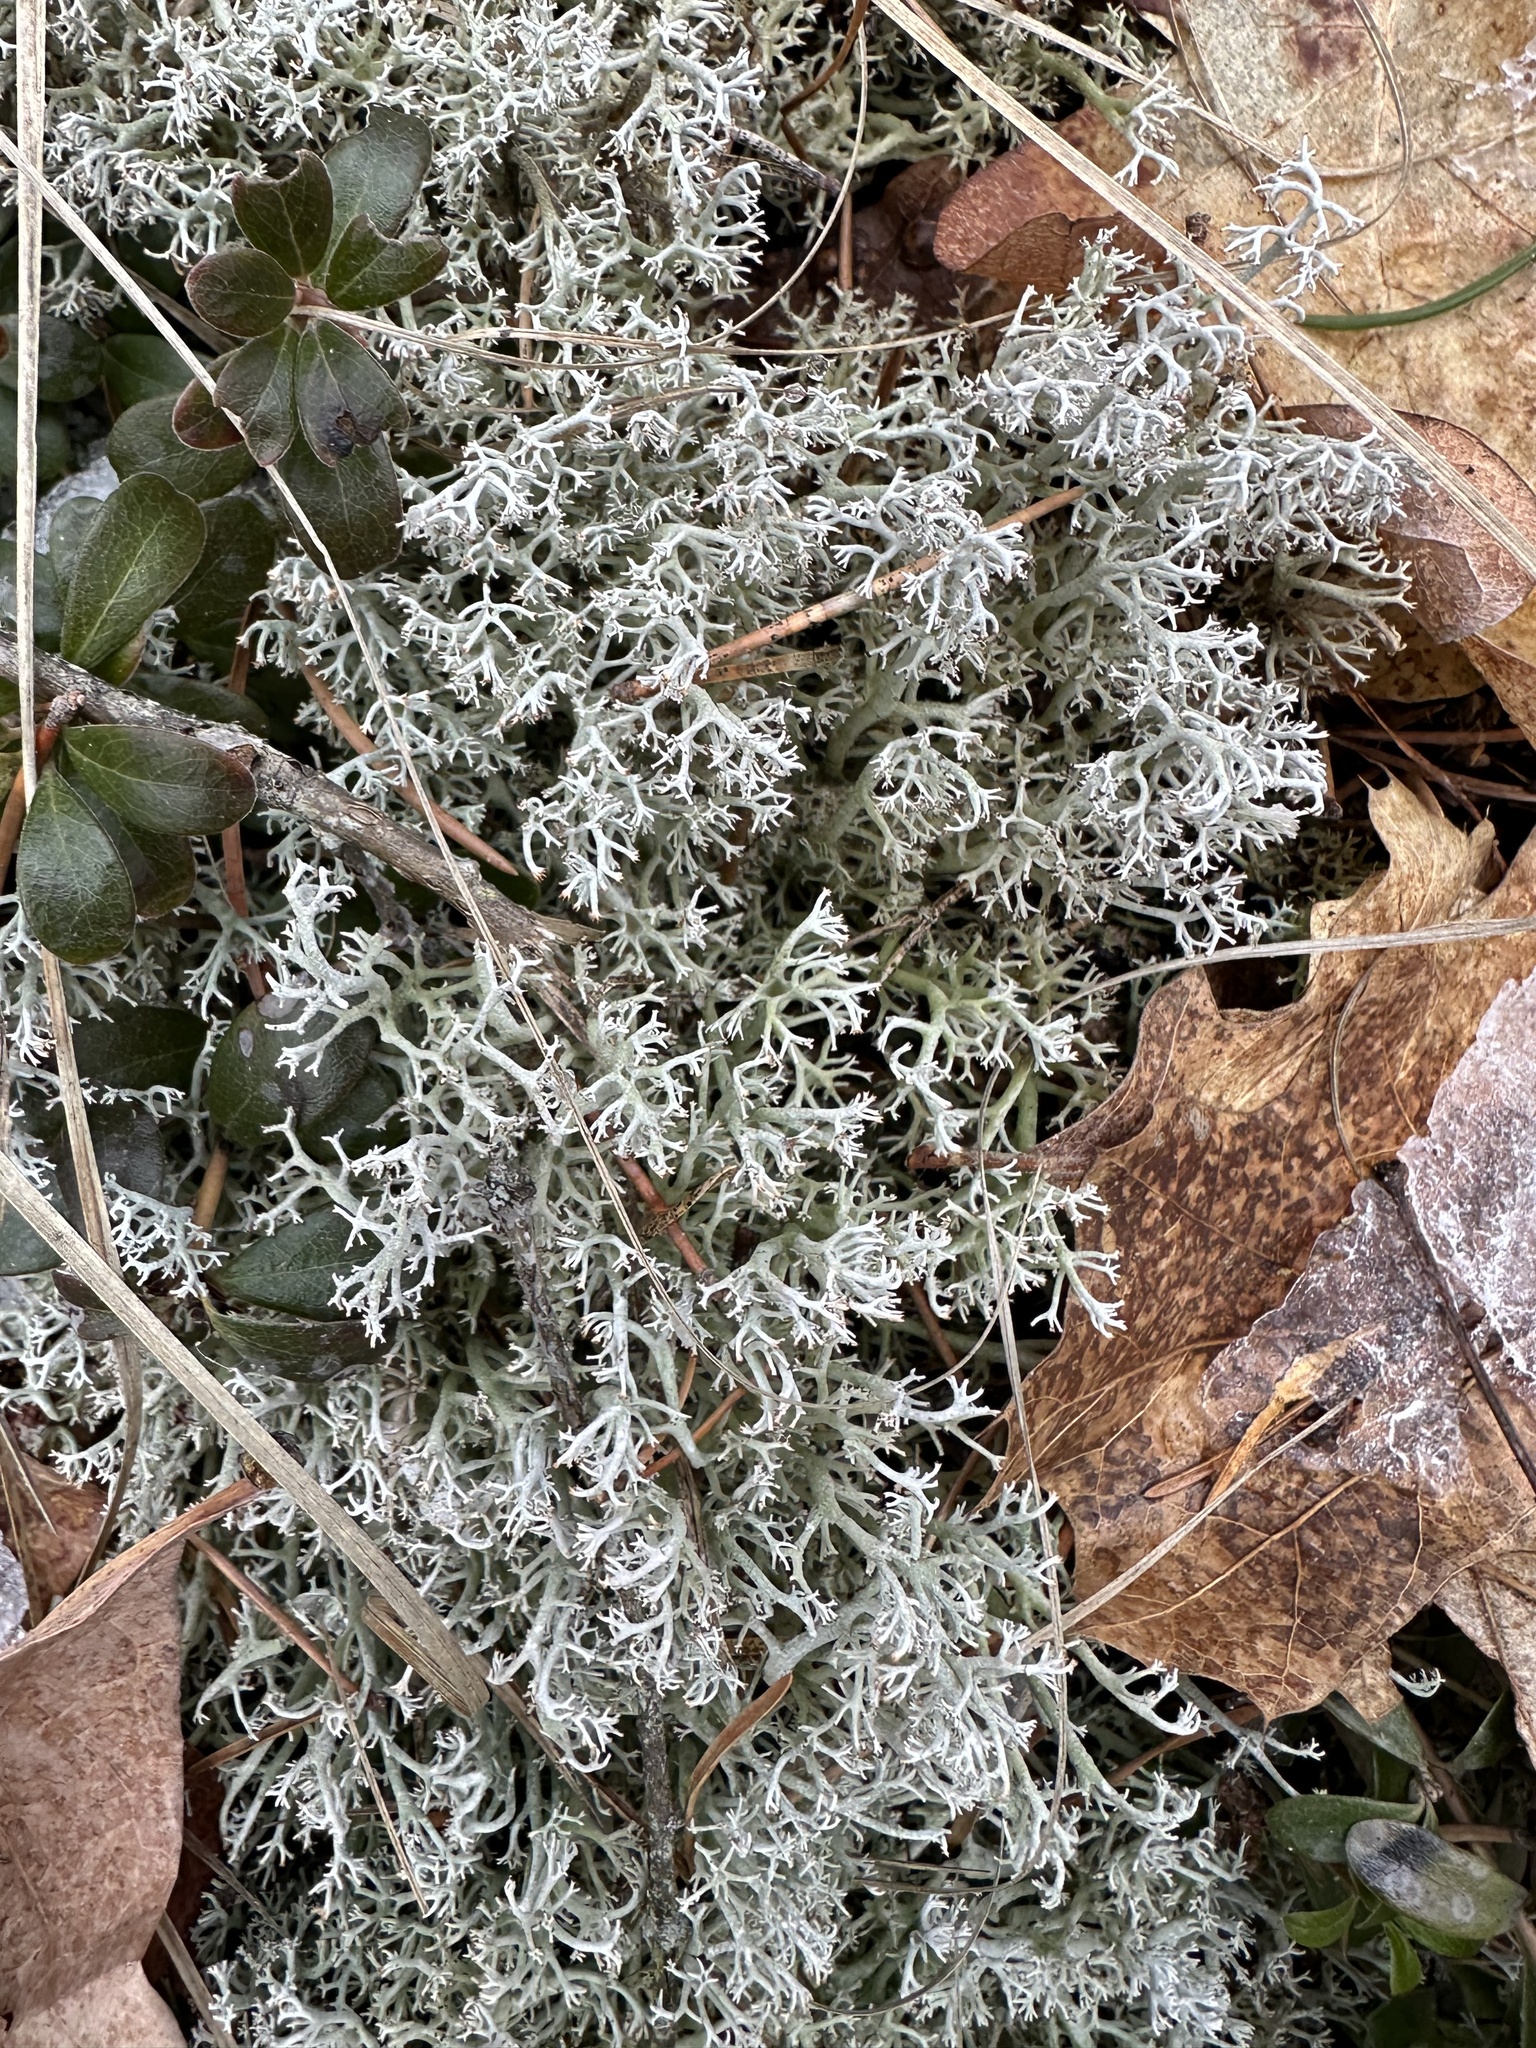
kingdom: Fungi
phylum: Ascomycota
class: Lecanoromycetes
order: Lecanorales
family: Cladoniaceae
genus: Cladonia
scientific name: Cladonia rangiferina
